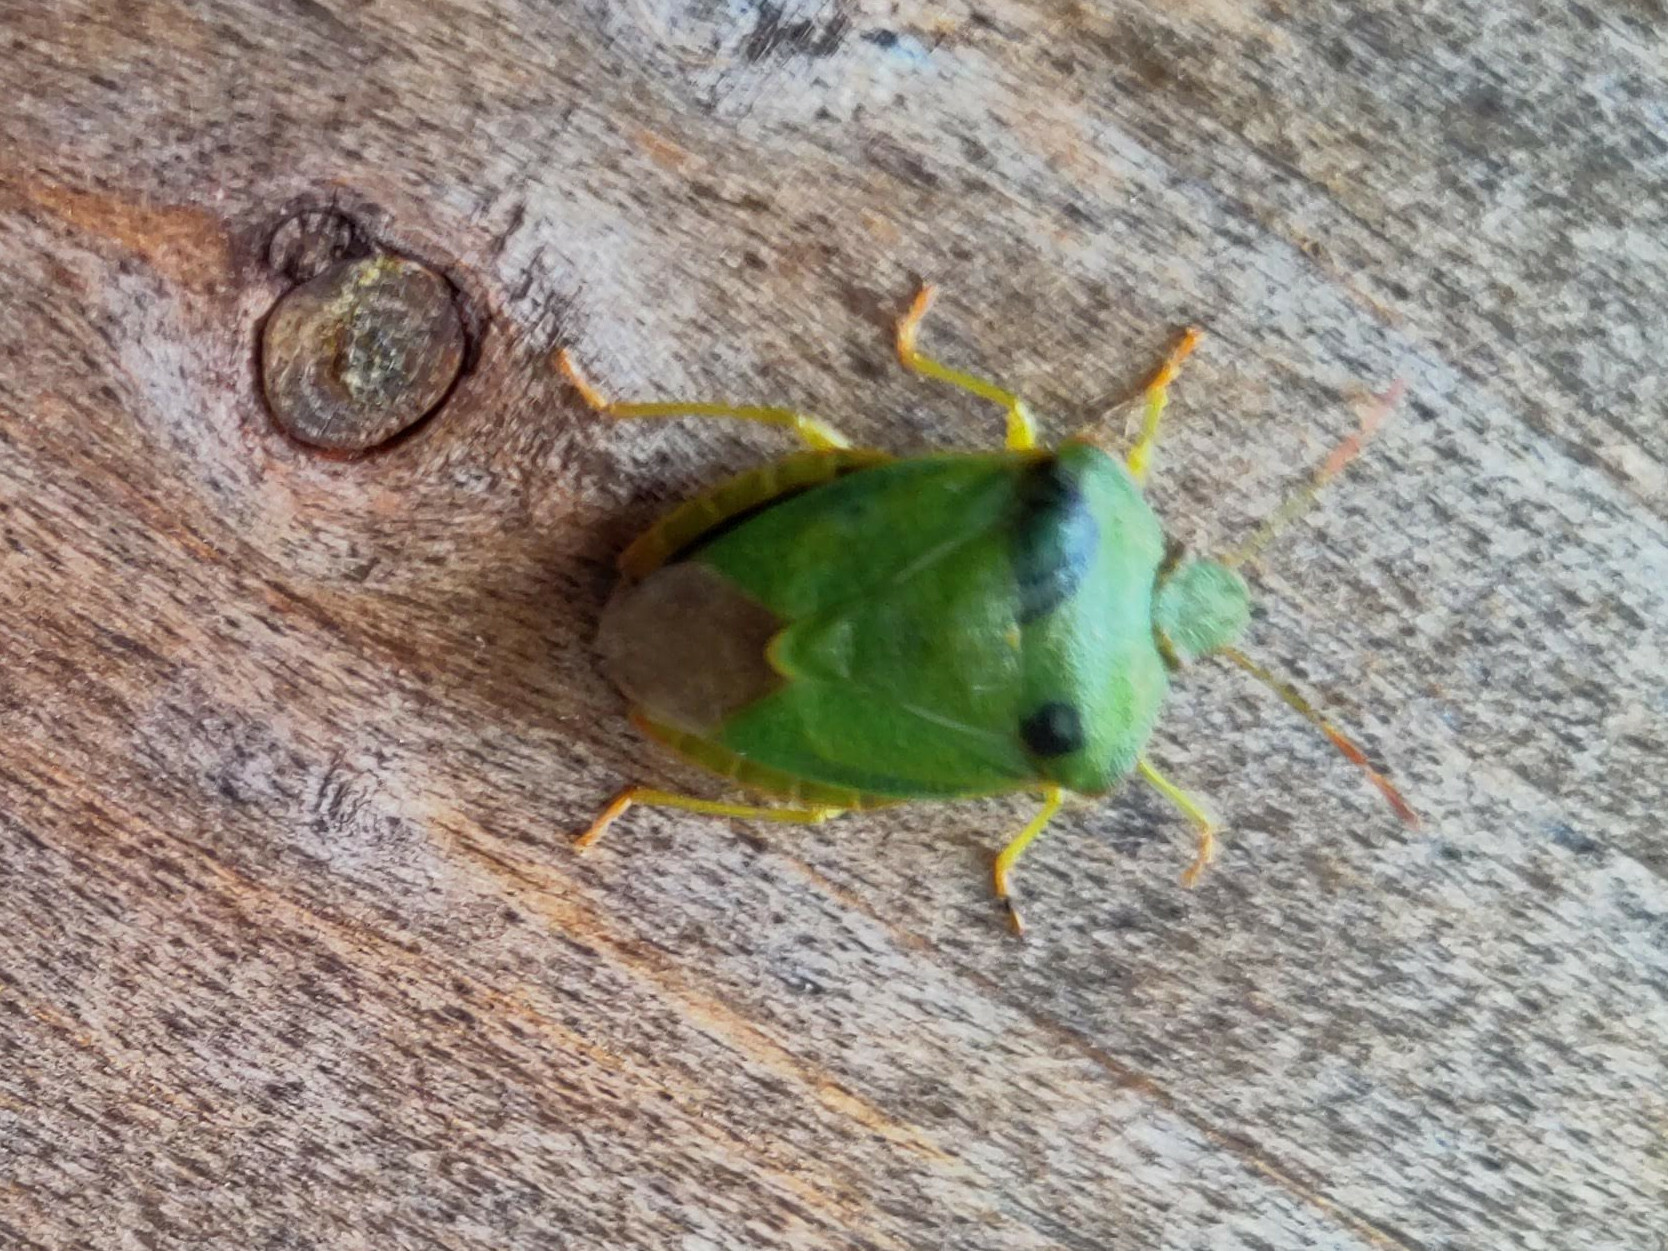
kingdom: Animalia
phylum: Arthropoda
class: Insecta
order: Hemiptera
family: Pentatomidae
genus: Palomena
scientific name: Palomena prasina
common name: Green shieldbug
